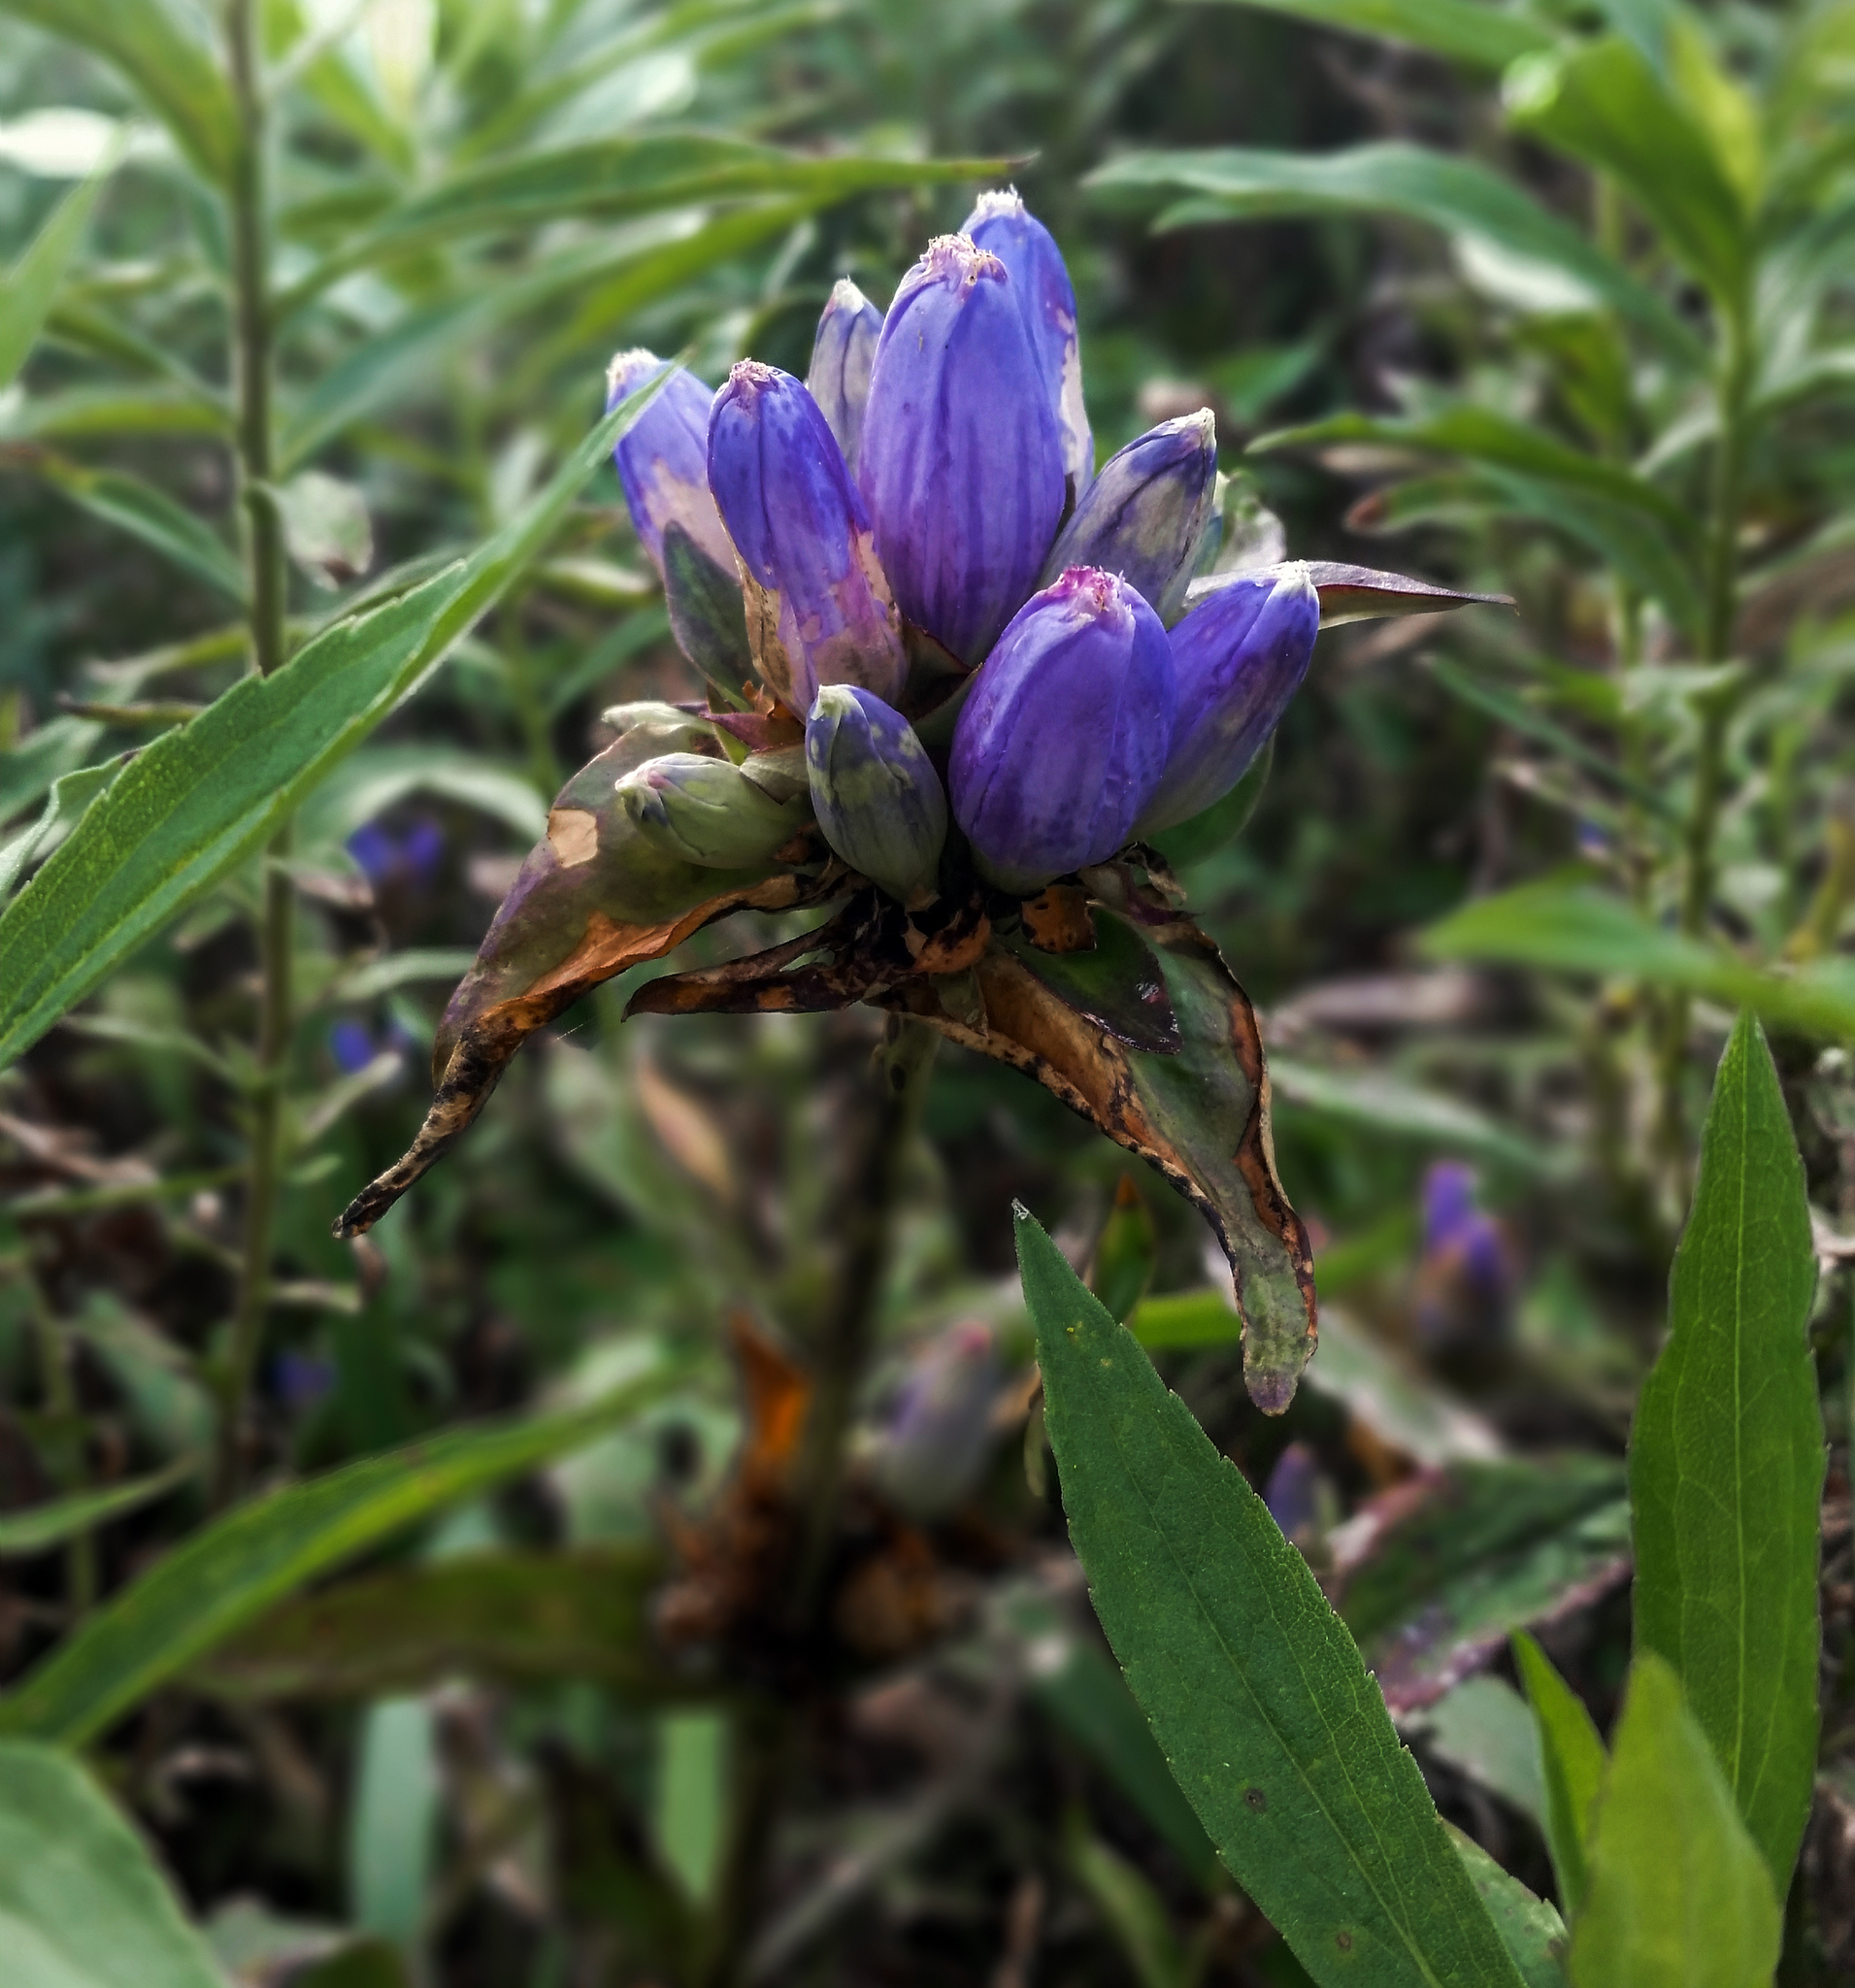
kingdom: Plantae
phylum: Tracheophyta
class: Magnoliopsida
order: Gentianales
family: Gentianaceae
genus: Gentiana
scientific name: Gentiana andrewsii
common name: Bottle gentian
